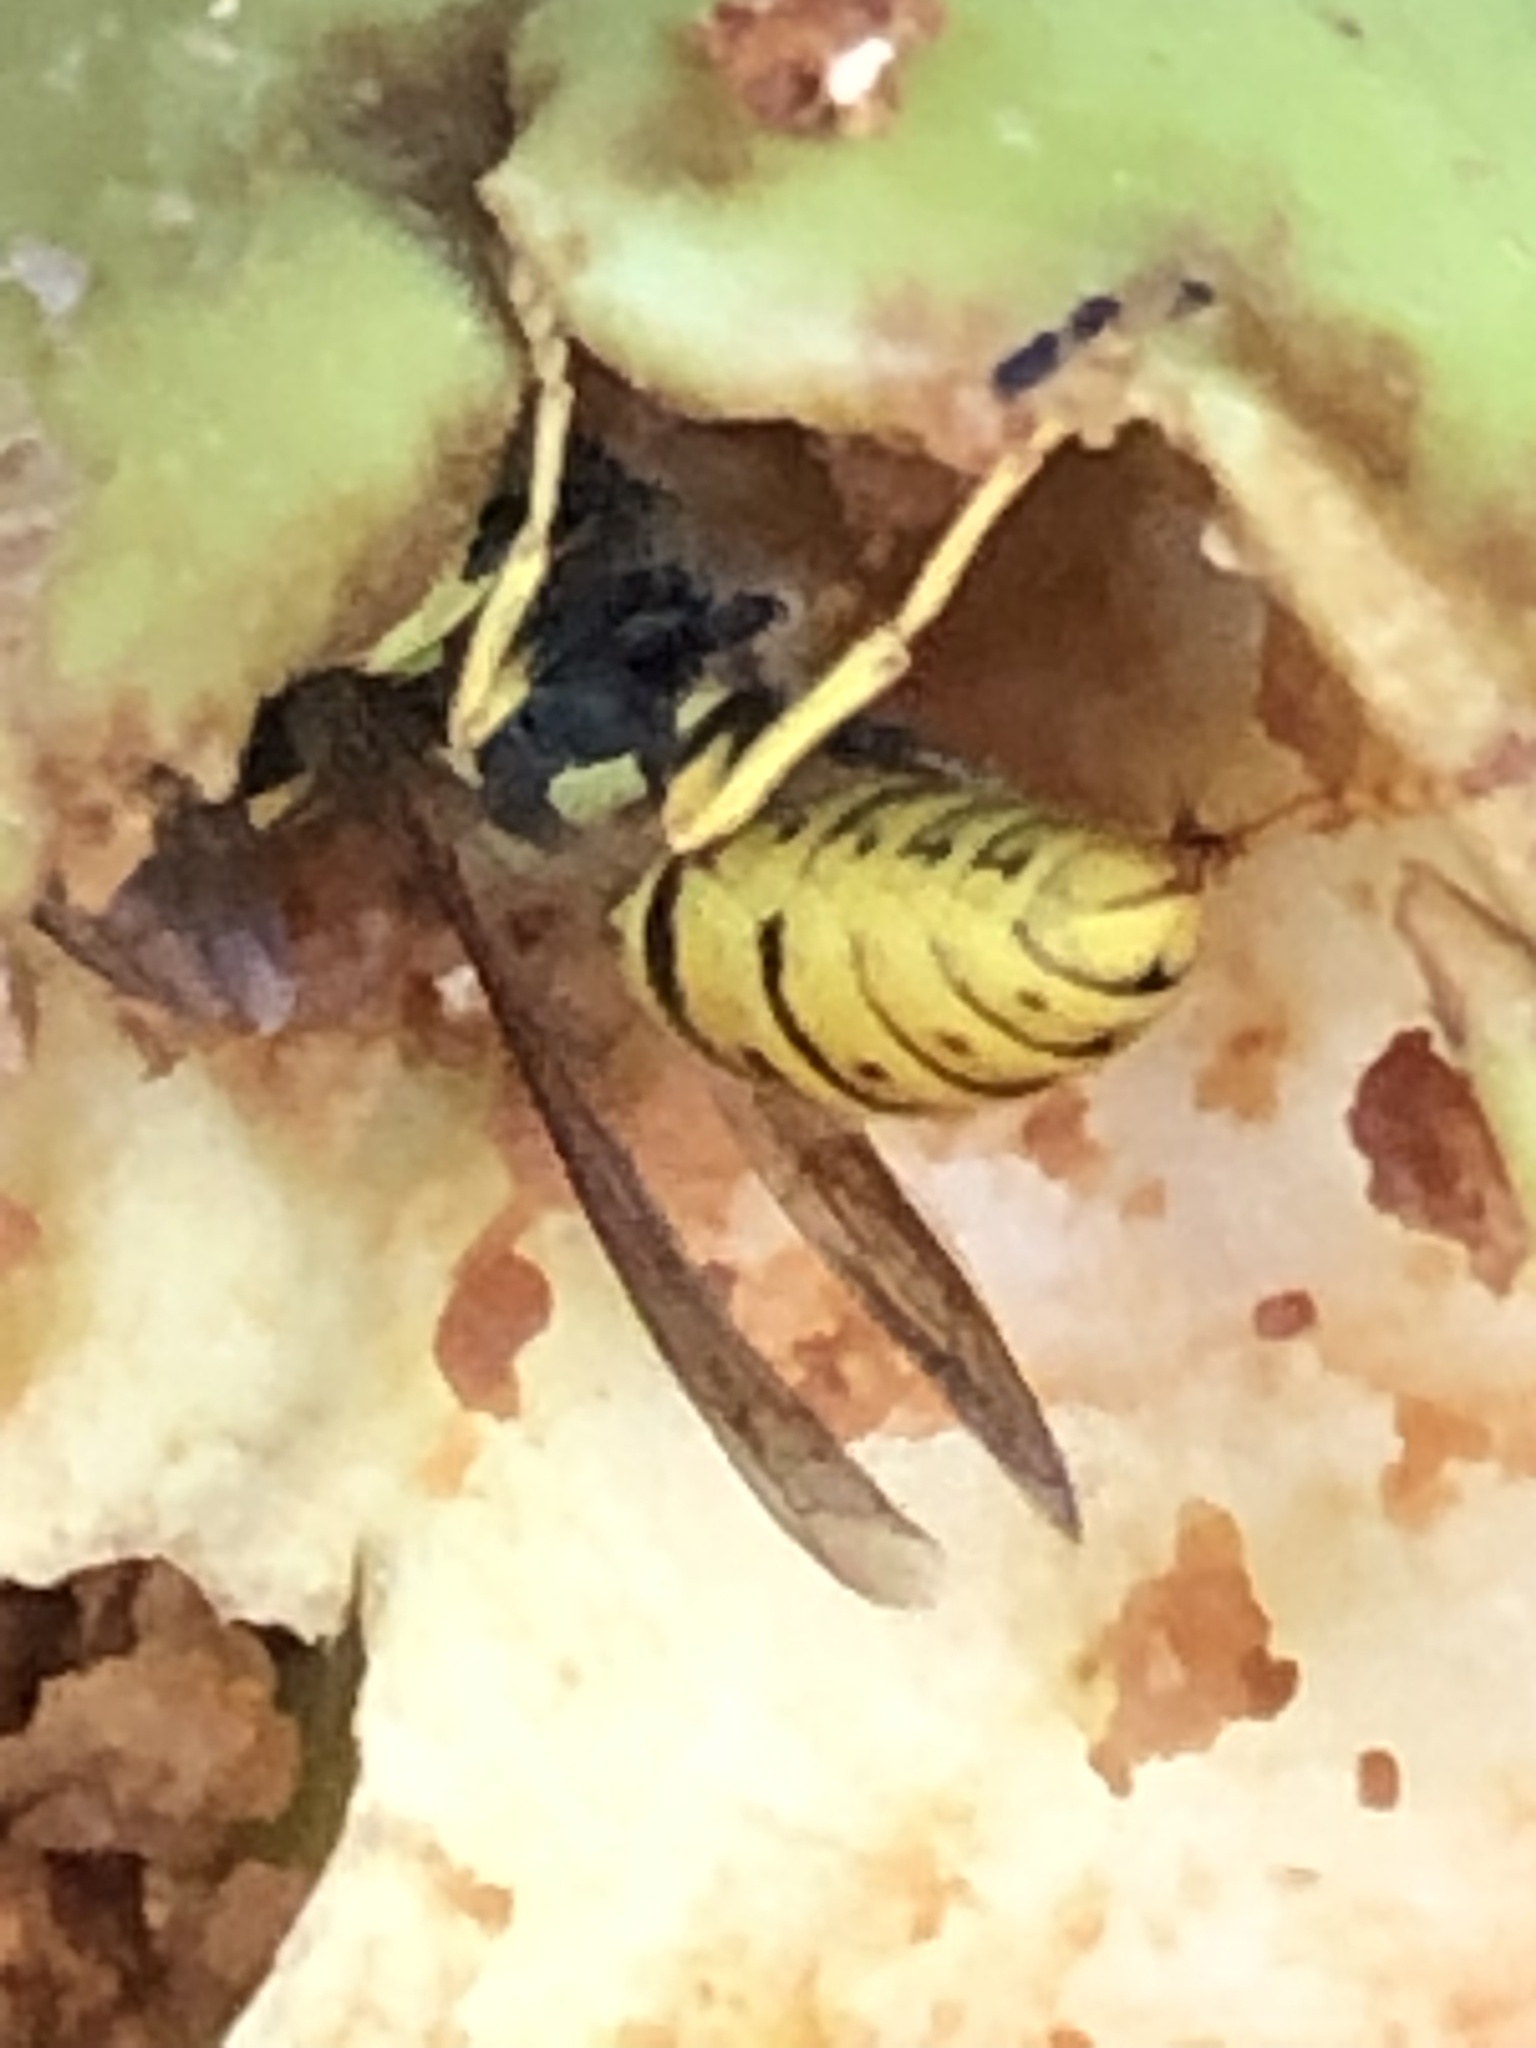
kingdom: Animalia
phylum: Arthropoda
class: Insecta
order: Hymenoptera
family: Vespidae
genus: Vespula
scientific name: Vespula germanica
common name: German wasp
